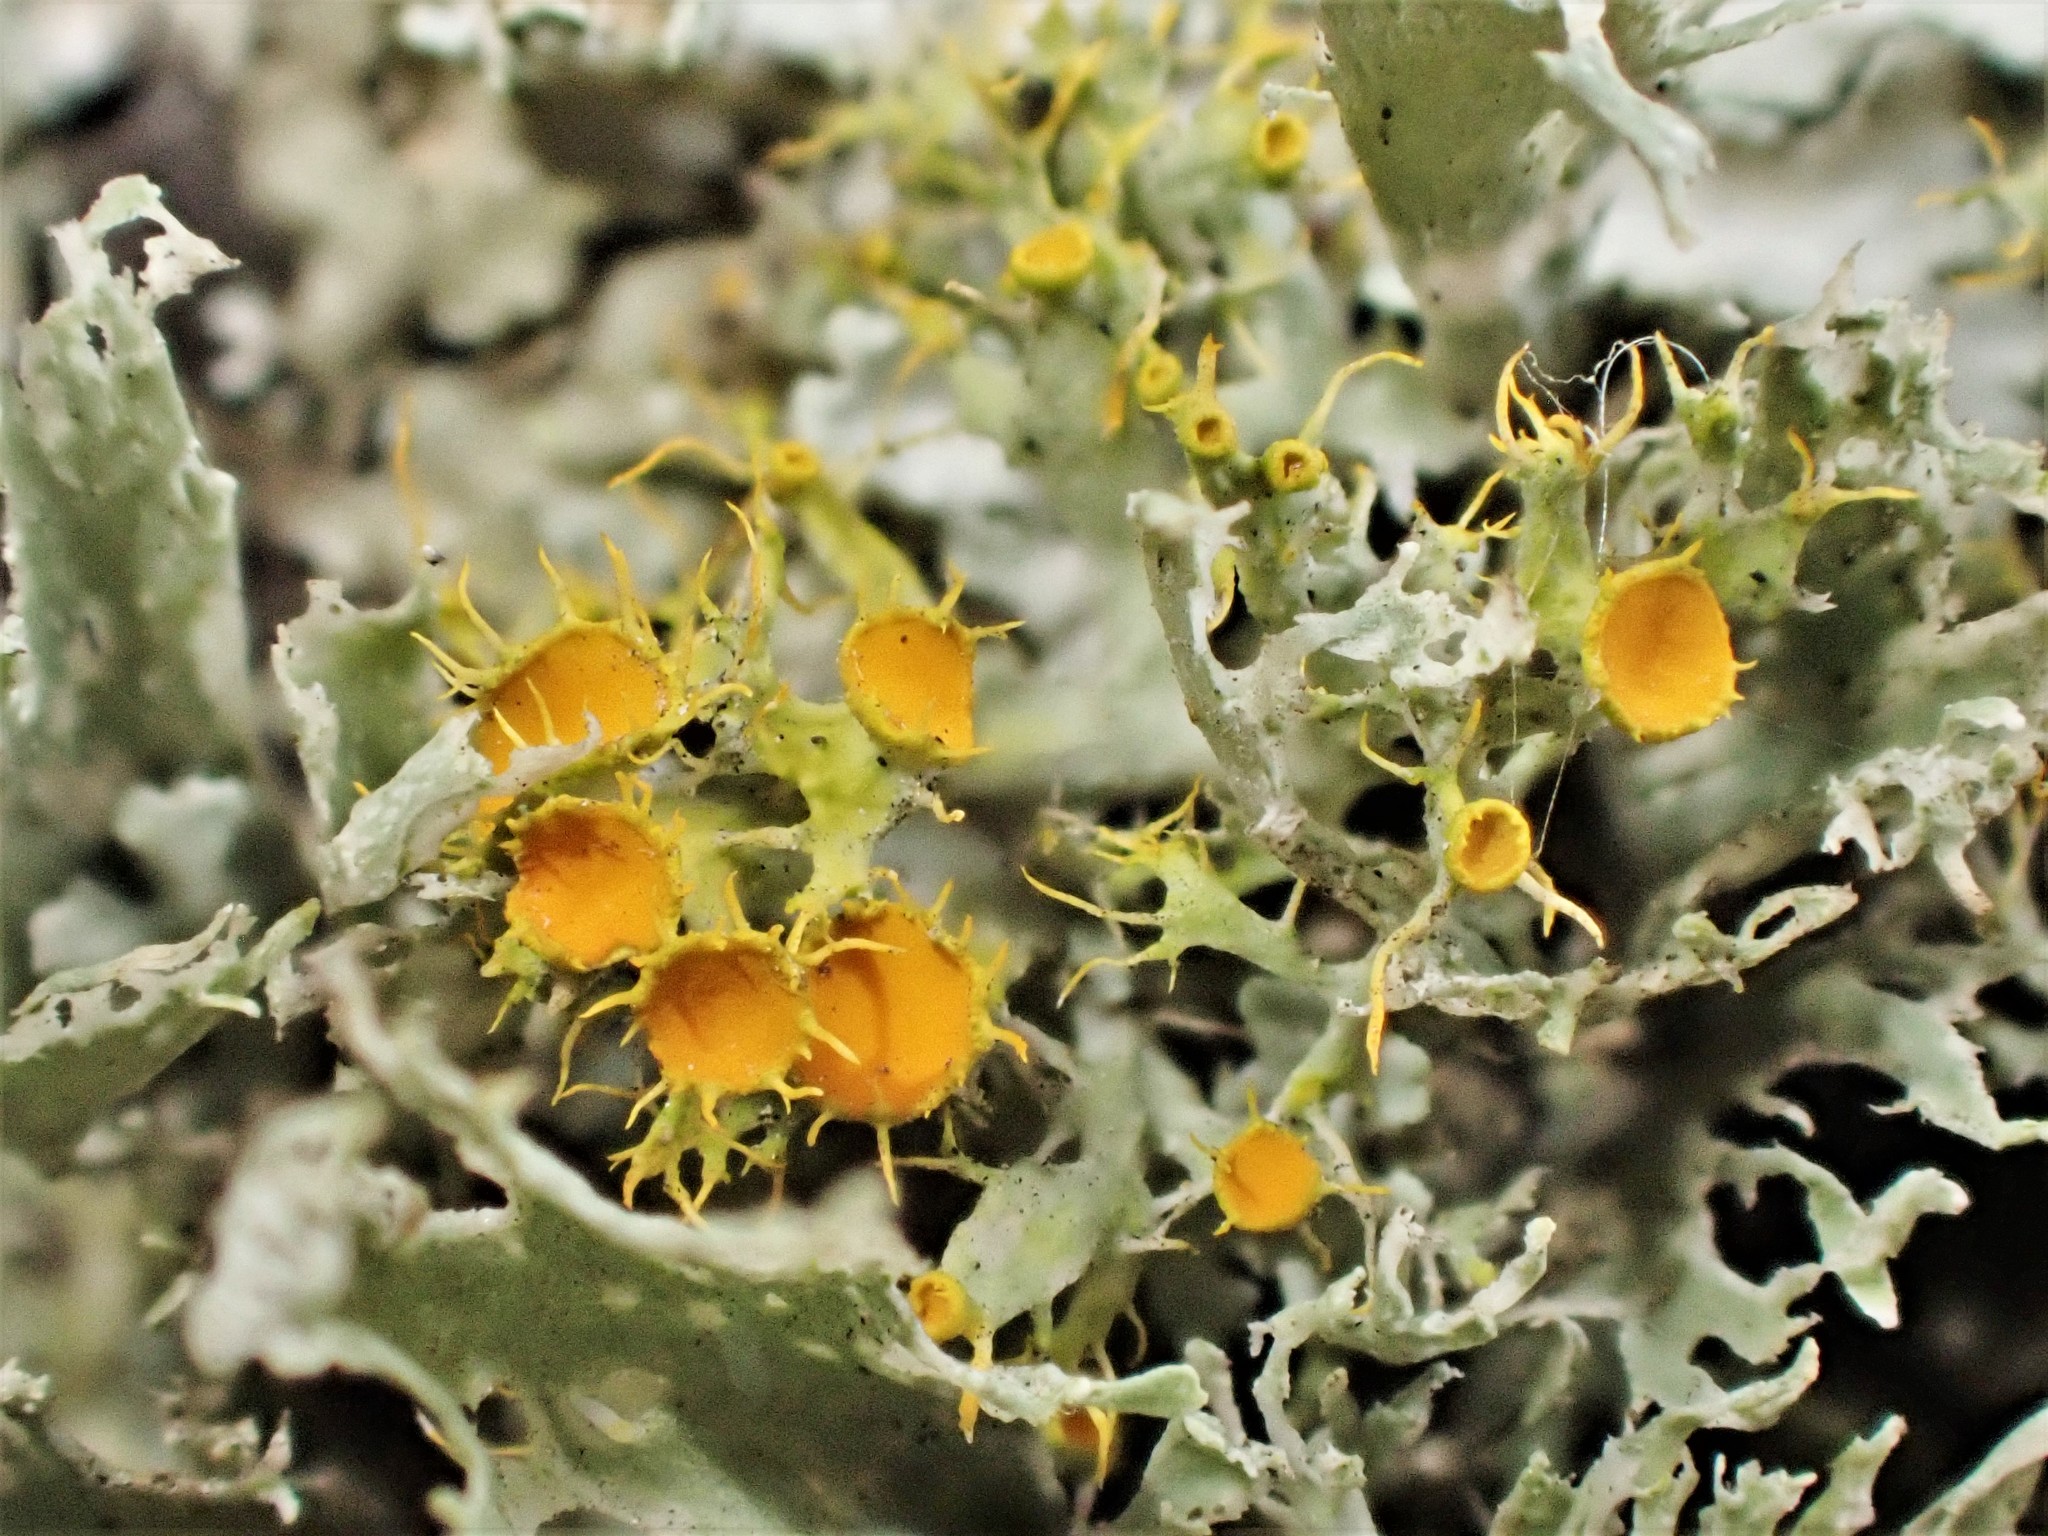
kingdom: Fungi
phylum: Ascomycota
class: Lecanoromycetes
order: Teloschistales
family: Teloschistaceae
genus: Niorma
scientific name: Niorma chrysophthalma
